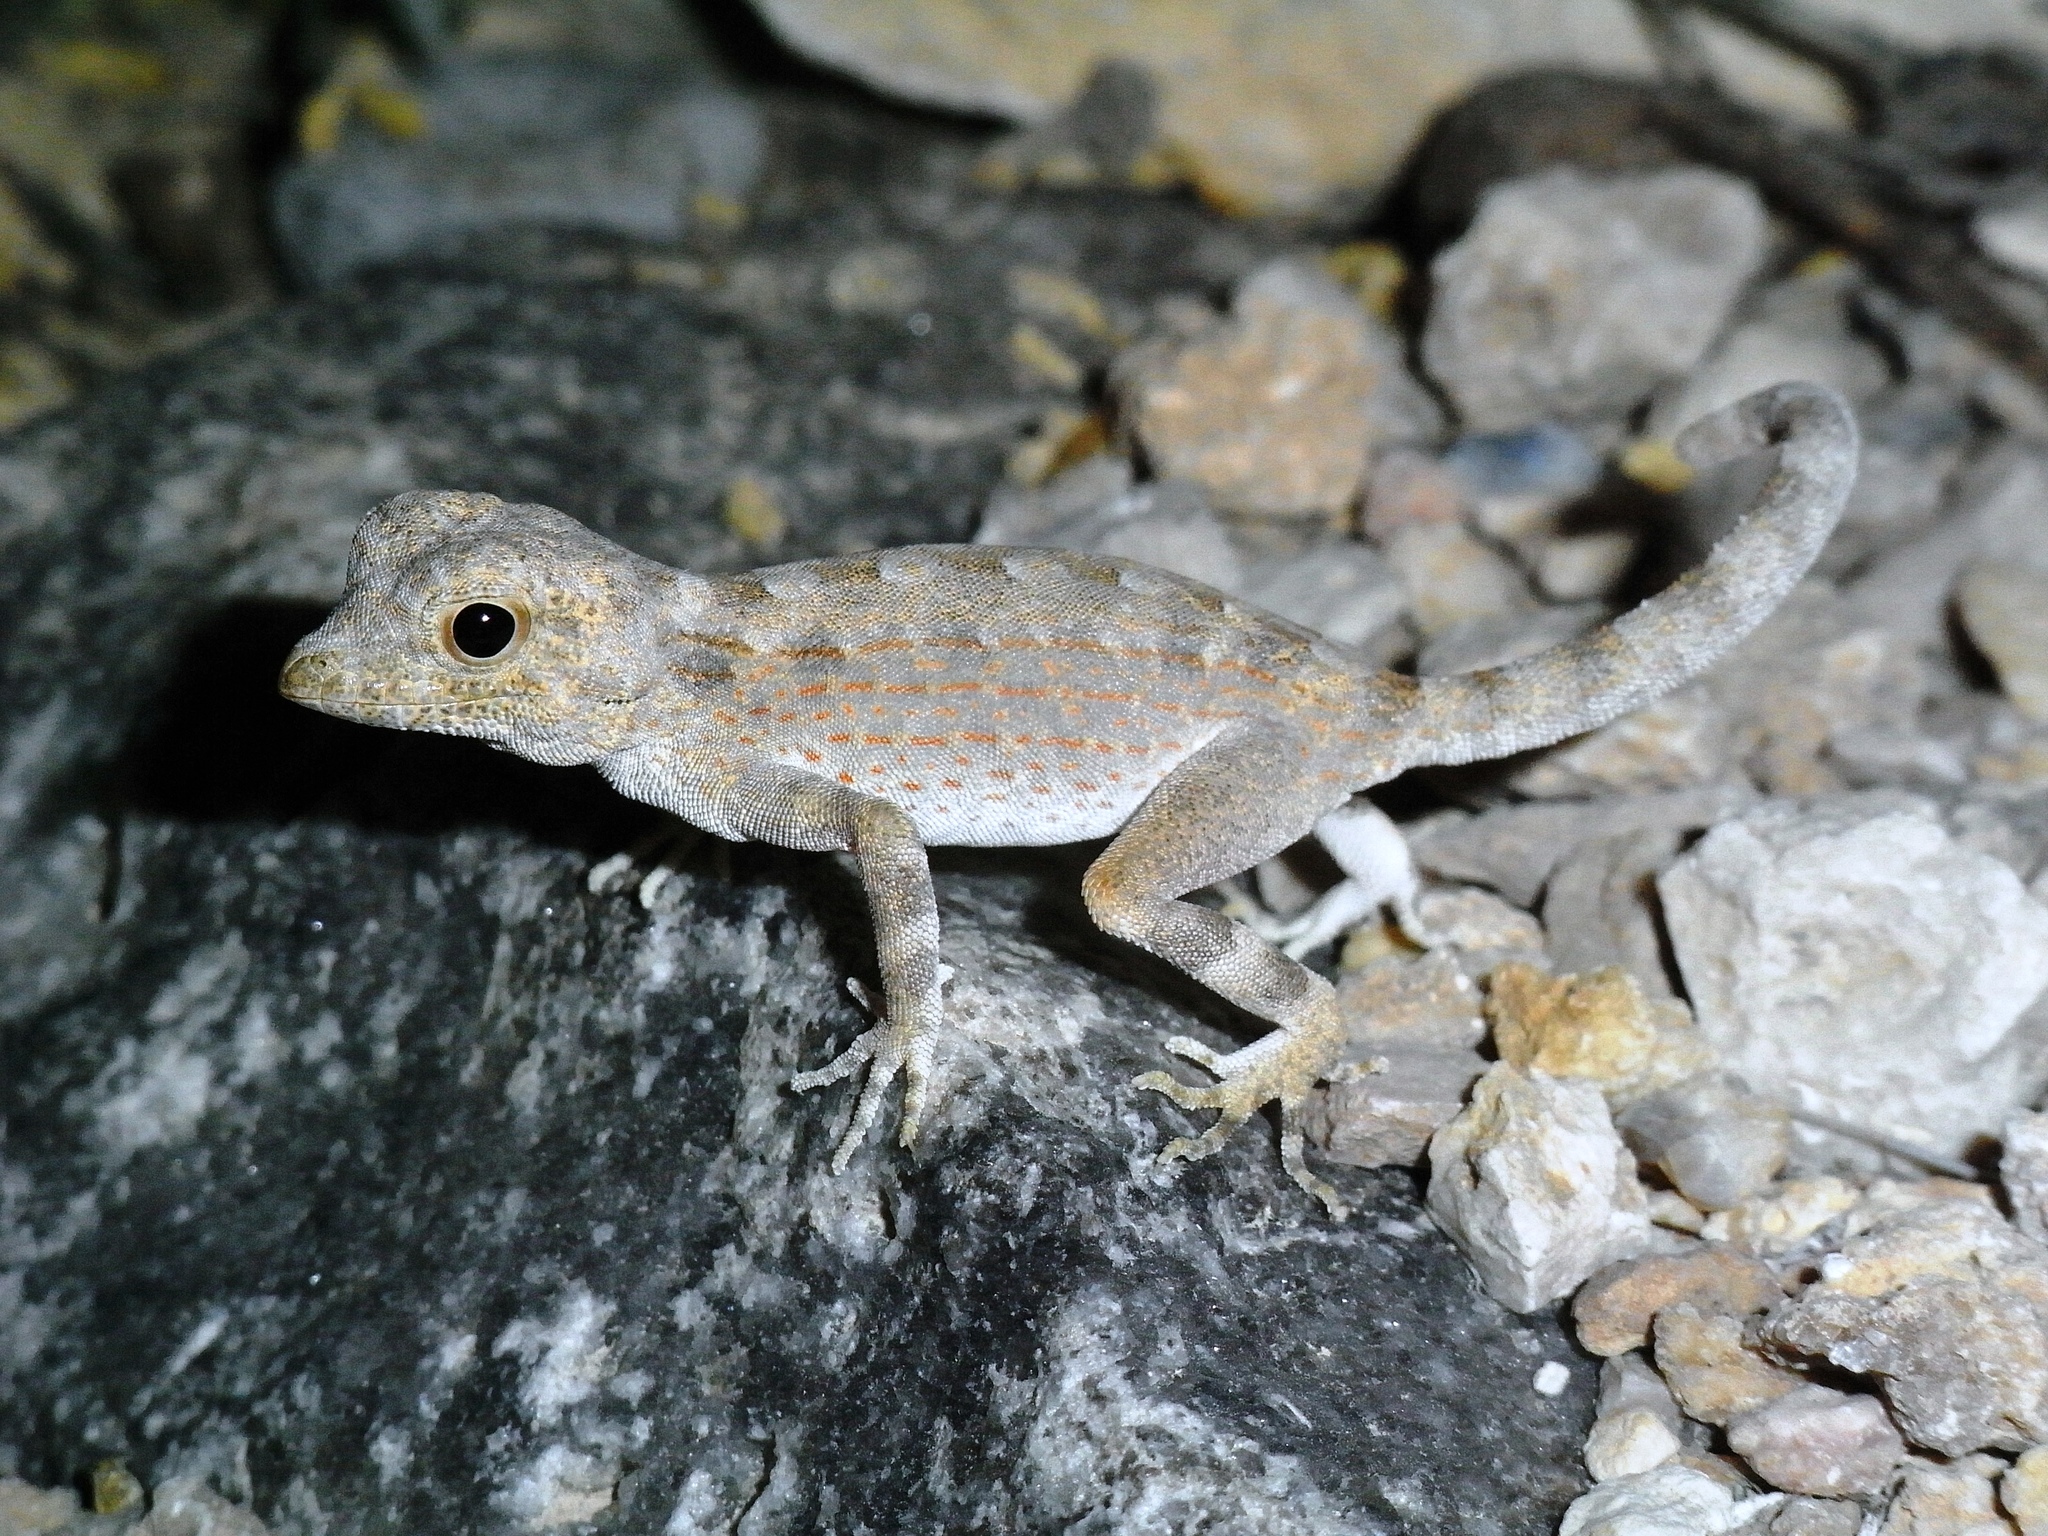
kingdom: Animalia
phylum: Chordata
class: Squamata
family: Sphaerodactylidae
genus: Pristurus
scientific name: Pristurus carteri
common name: Carter's rock gecko
